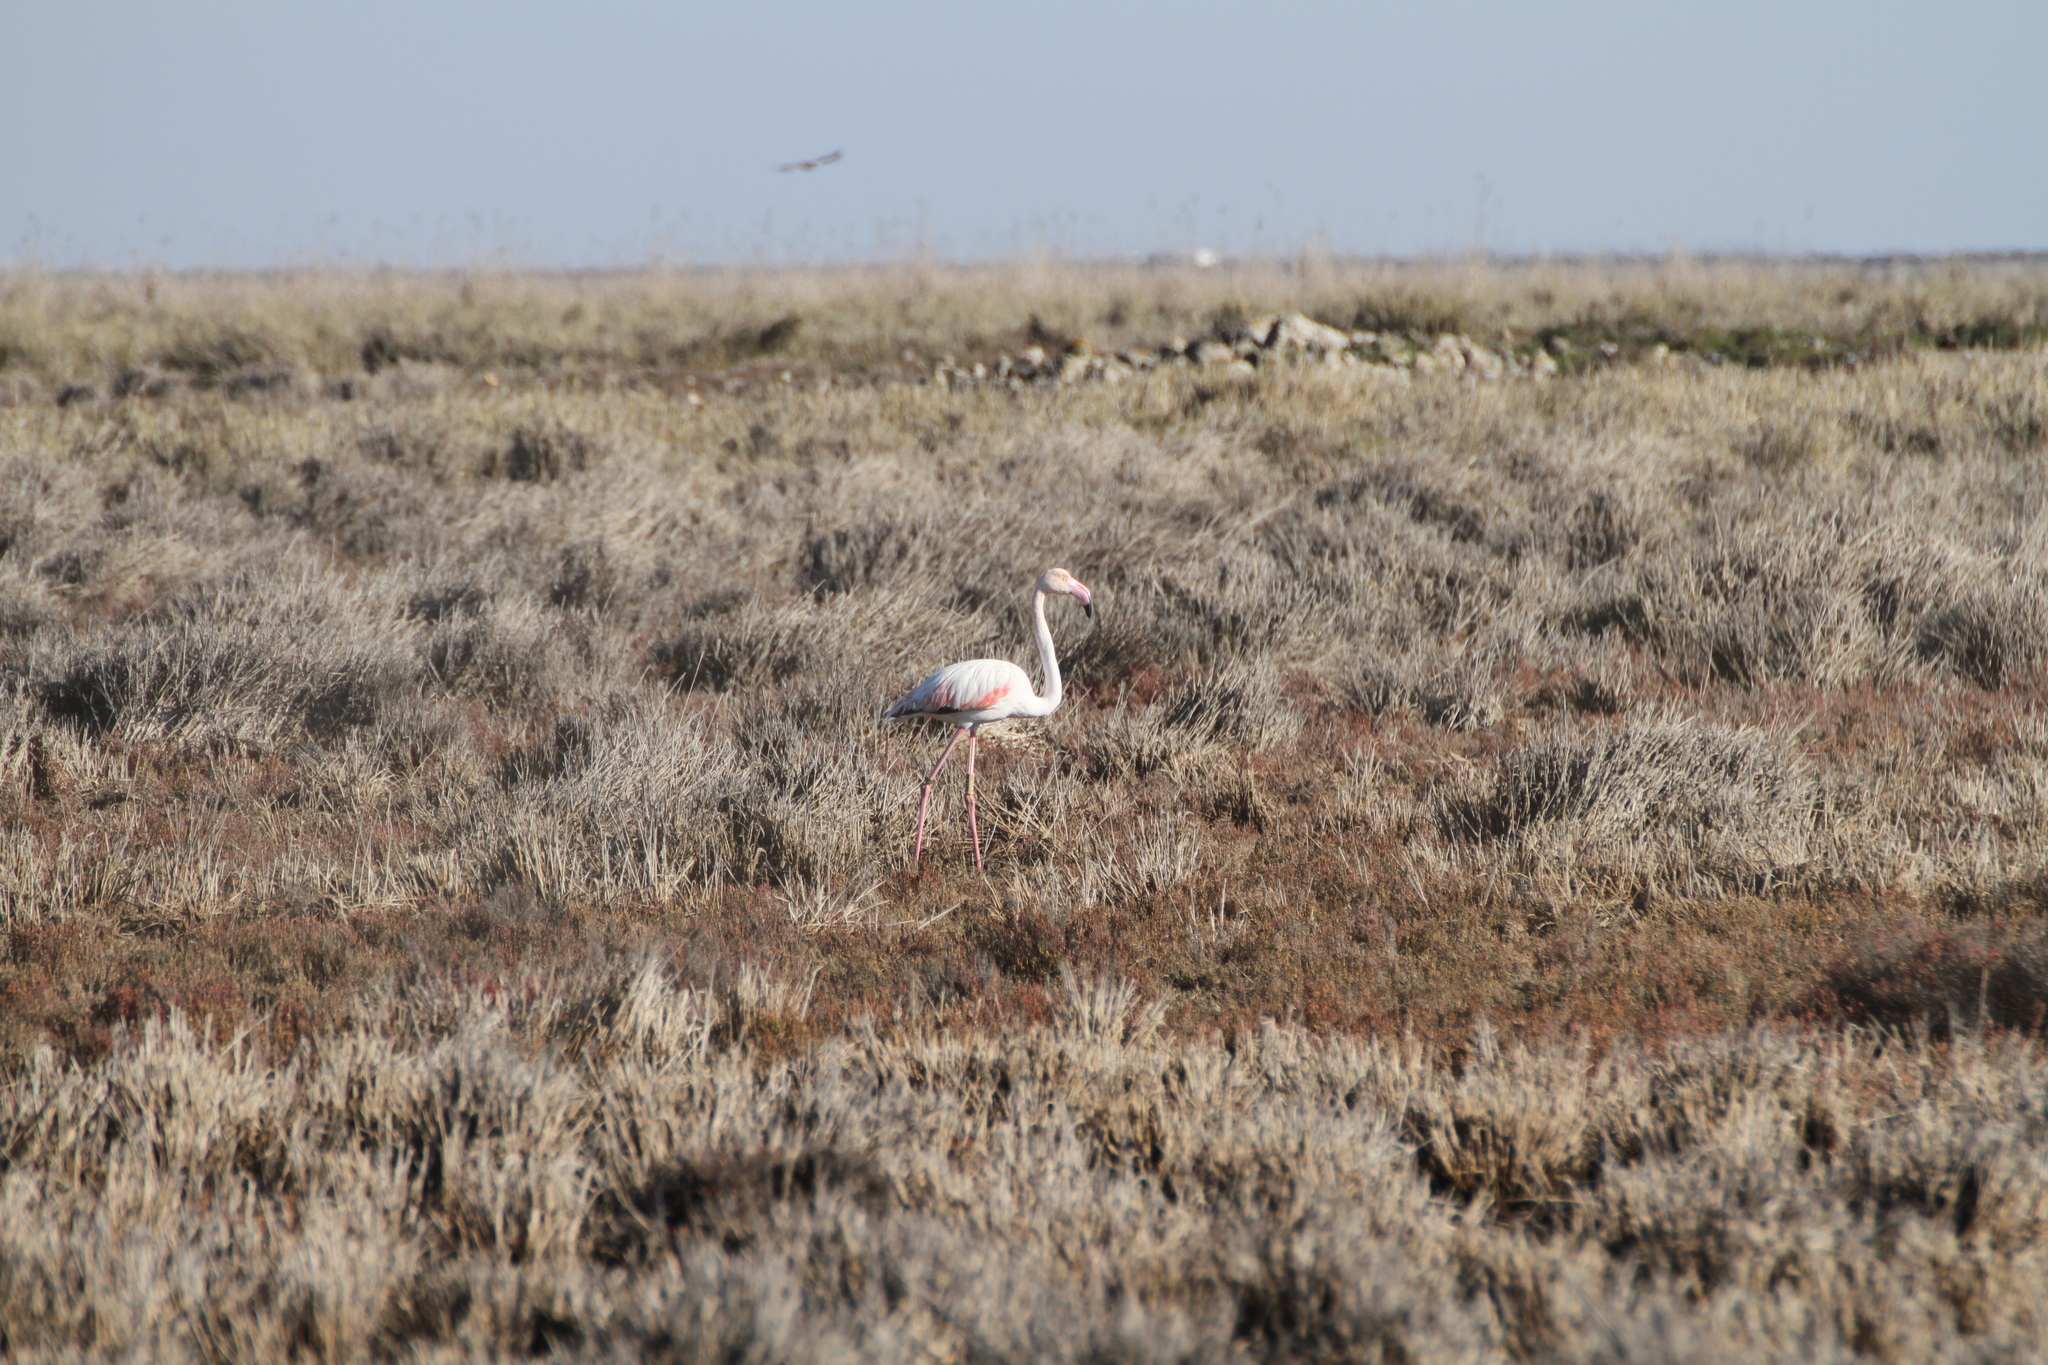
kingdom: Animalia
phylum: Chordata
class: Aves
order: Phoenicopteriformes
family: Phoenicopteridae
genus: Phoenicopterus
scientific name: Phoenicopterus roseus
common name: Greater flamingo
